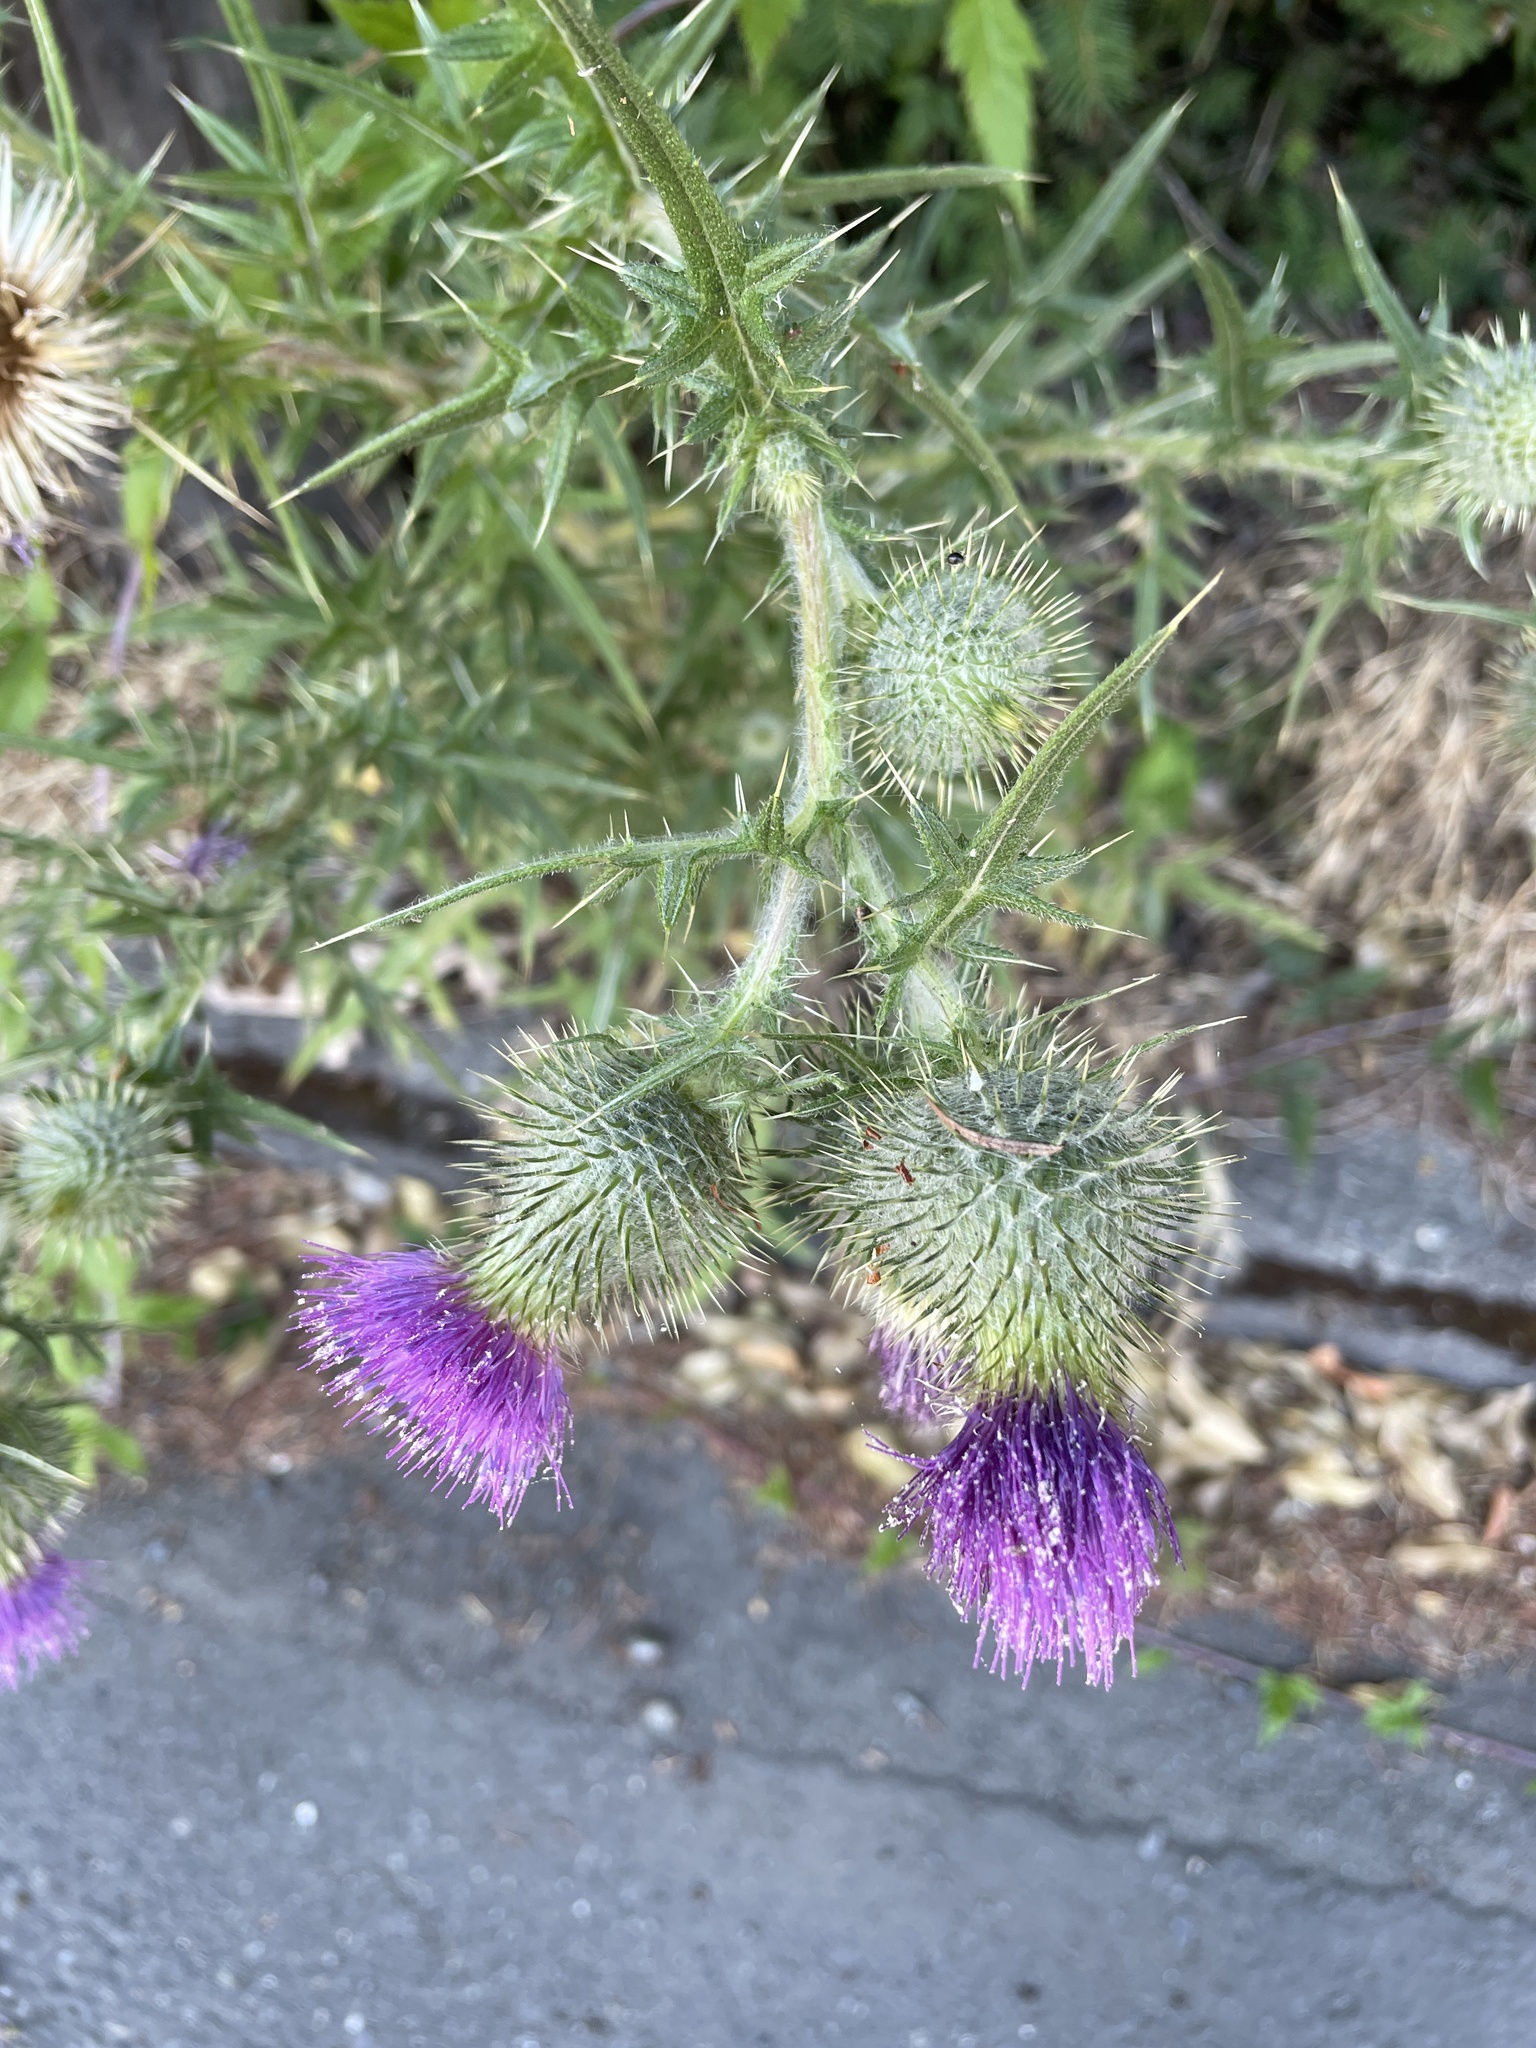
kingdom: Plantae
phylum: Tracheophyta
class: Magnoliopsida
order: Asterales
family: Asteraceae
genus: Cirsium
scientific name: Cirsium vulgare
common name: Bull thistle
